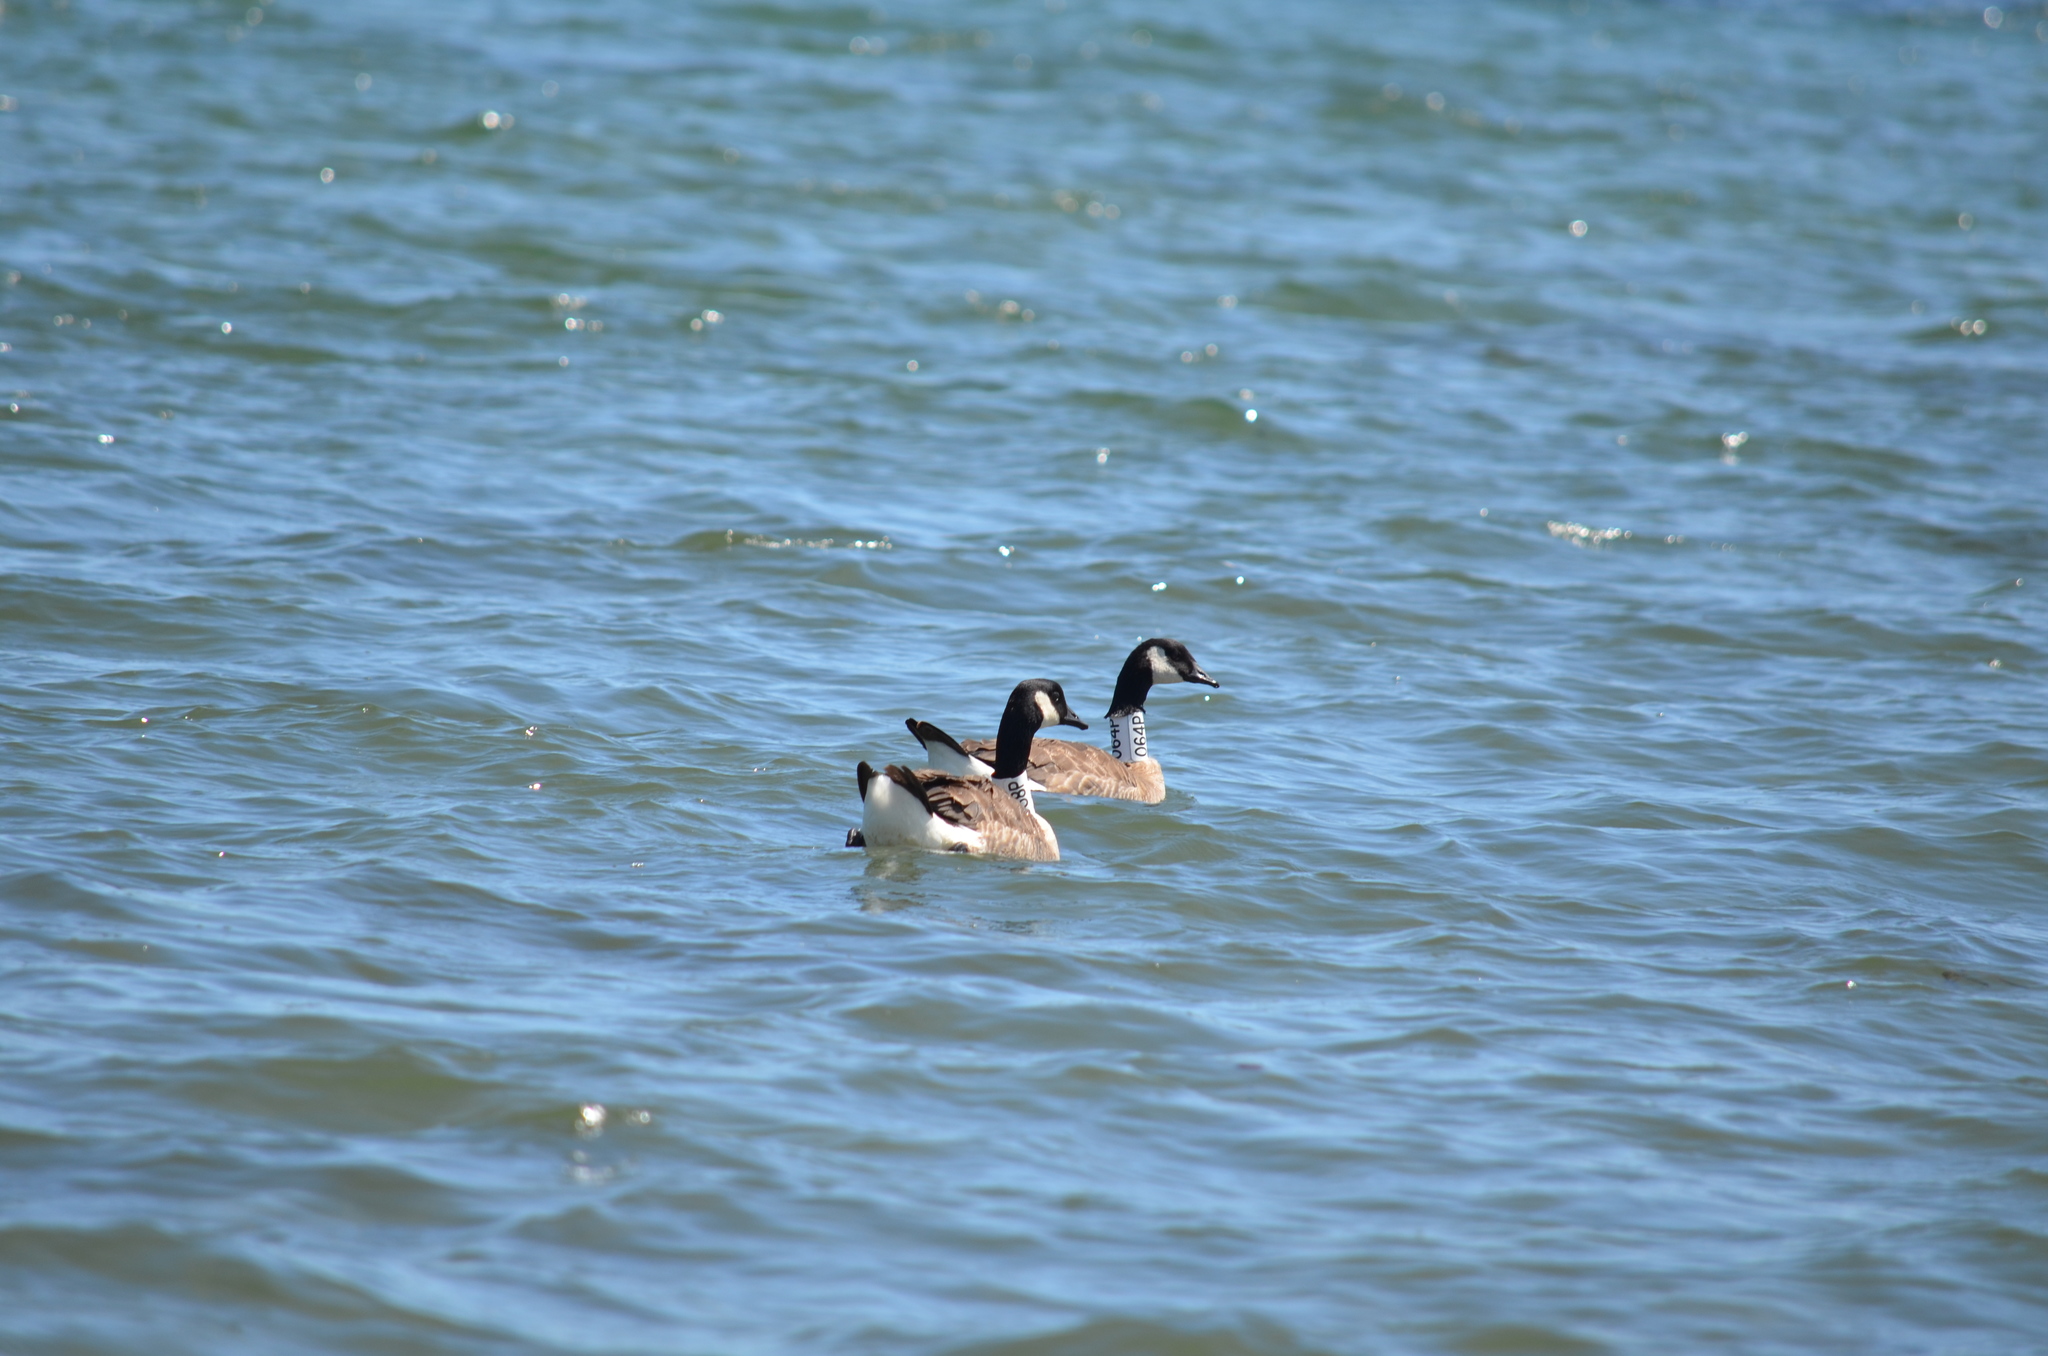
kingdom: Animalia
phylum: Chordata
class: Aves
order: Anseriformes
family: Anatidae
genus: Branta
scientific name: Branta canadensis
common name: Canada goose
